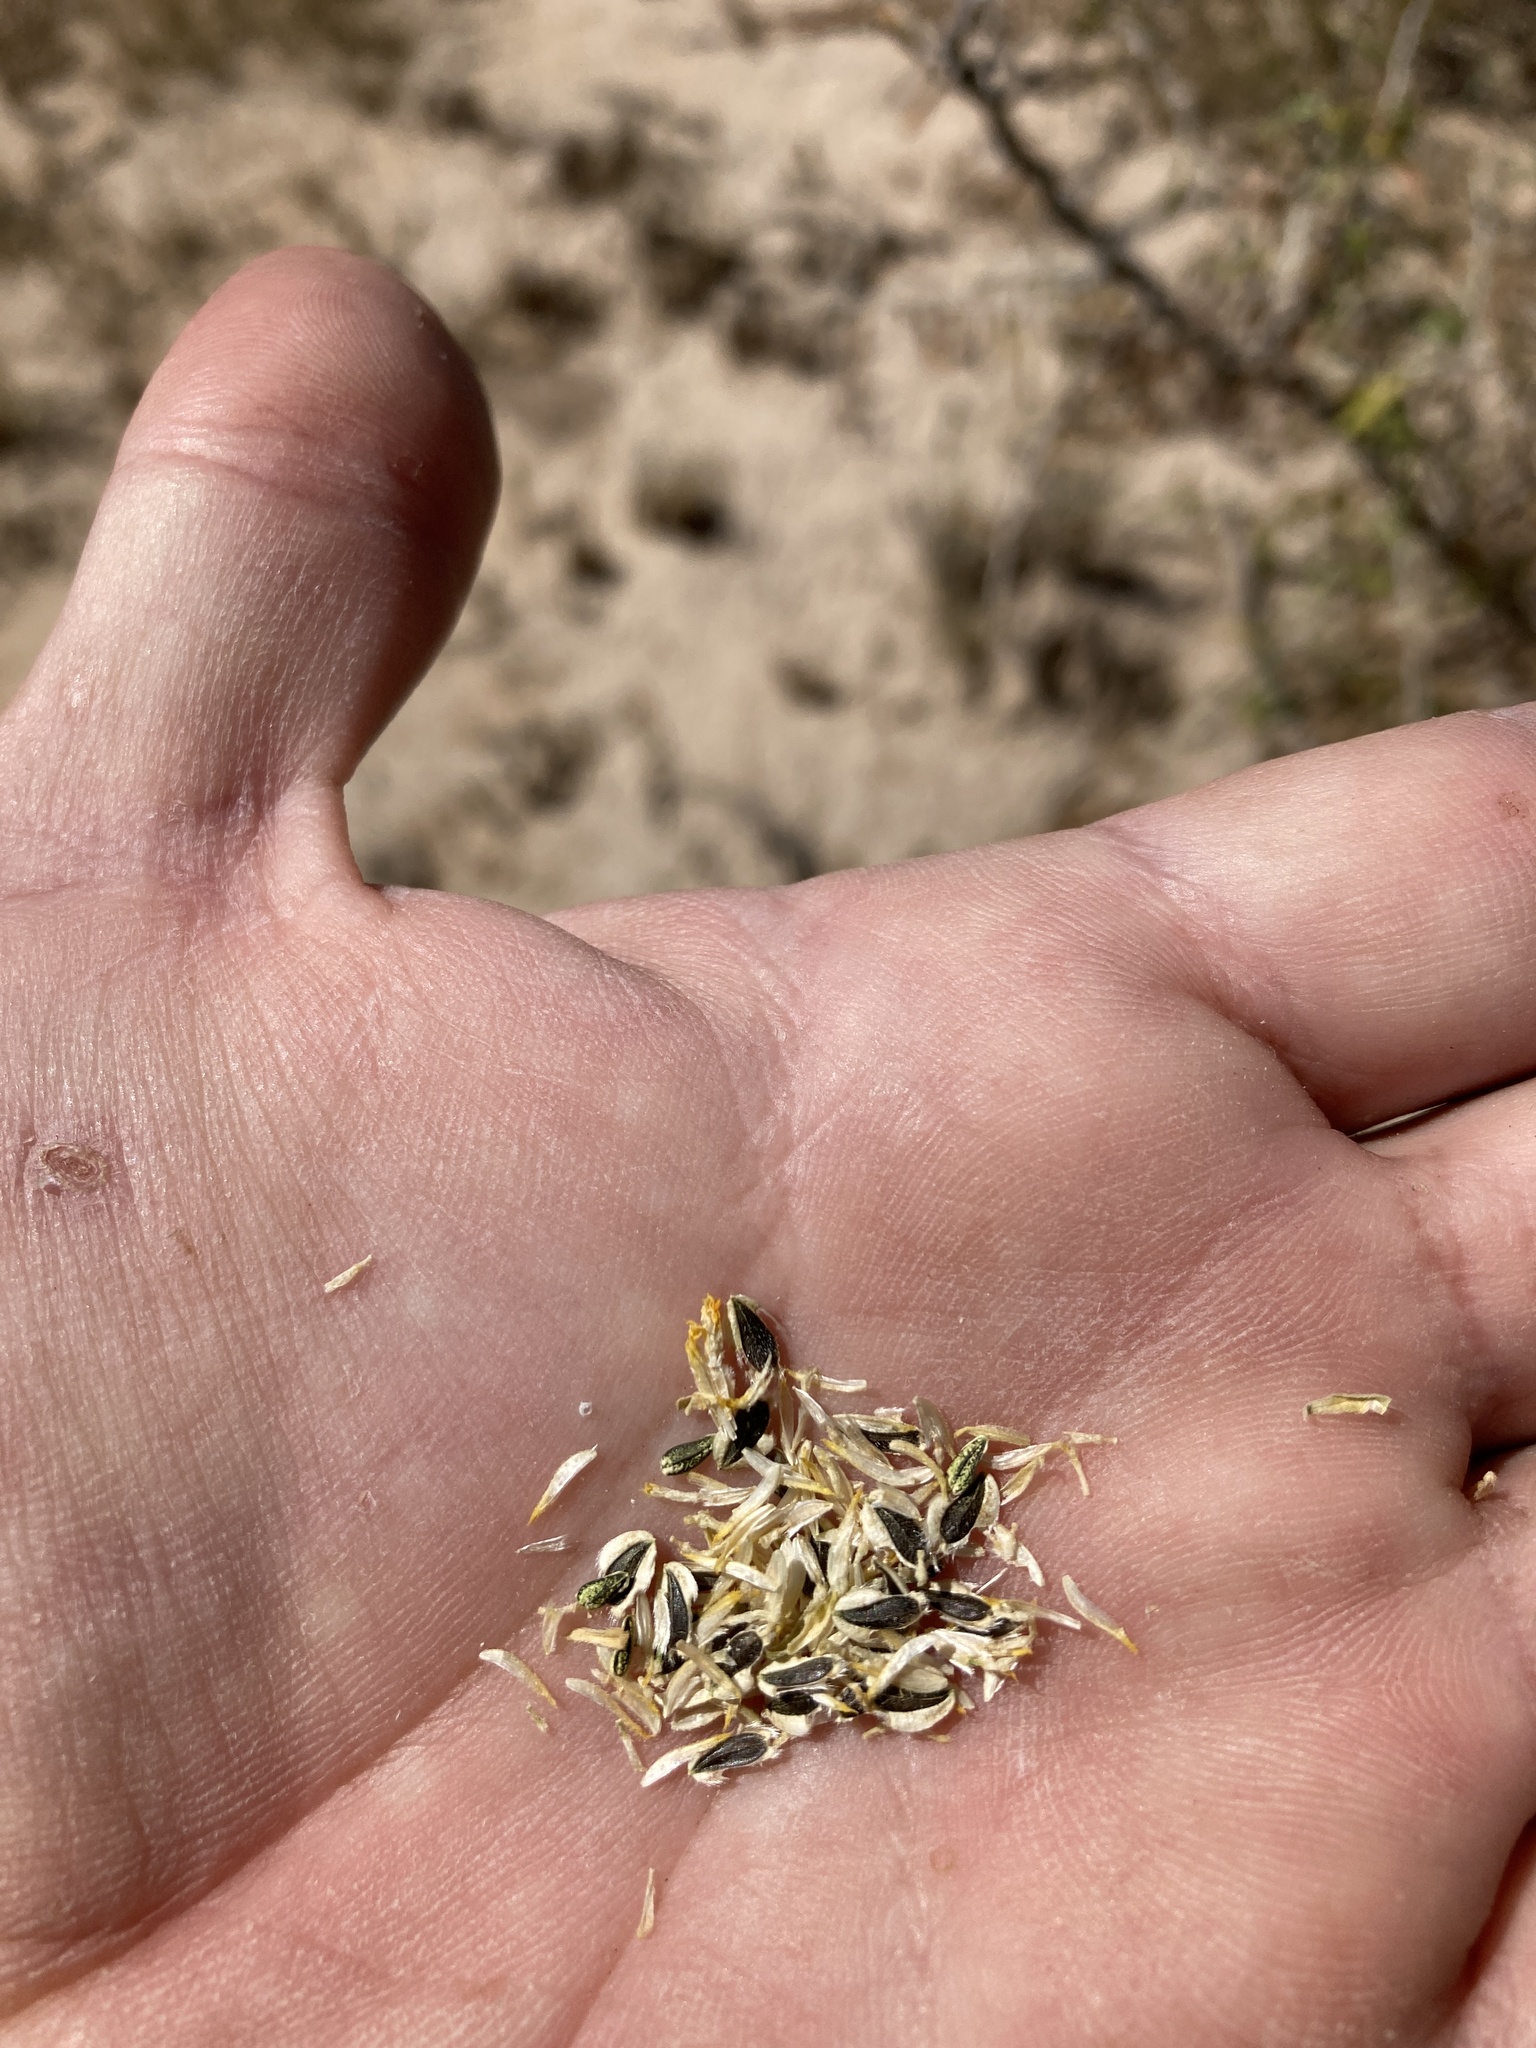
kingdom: Plantae
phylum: Tracheophyta
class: Magnoliopsida
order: Asterales
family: Asteraceae
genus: Verbesina
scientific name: Verbesina encelioides
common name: Golden crownbeard
